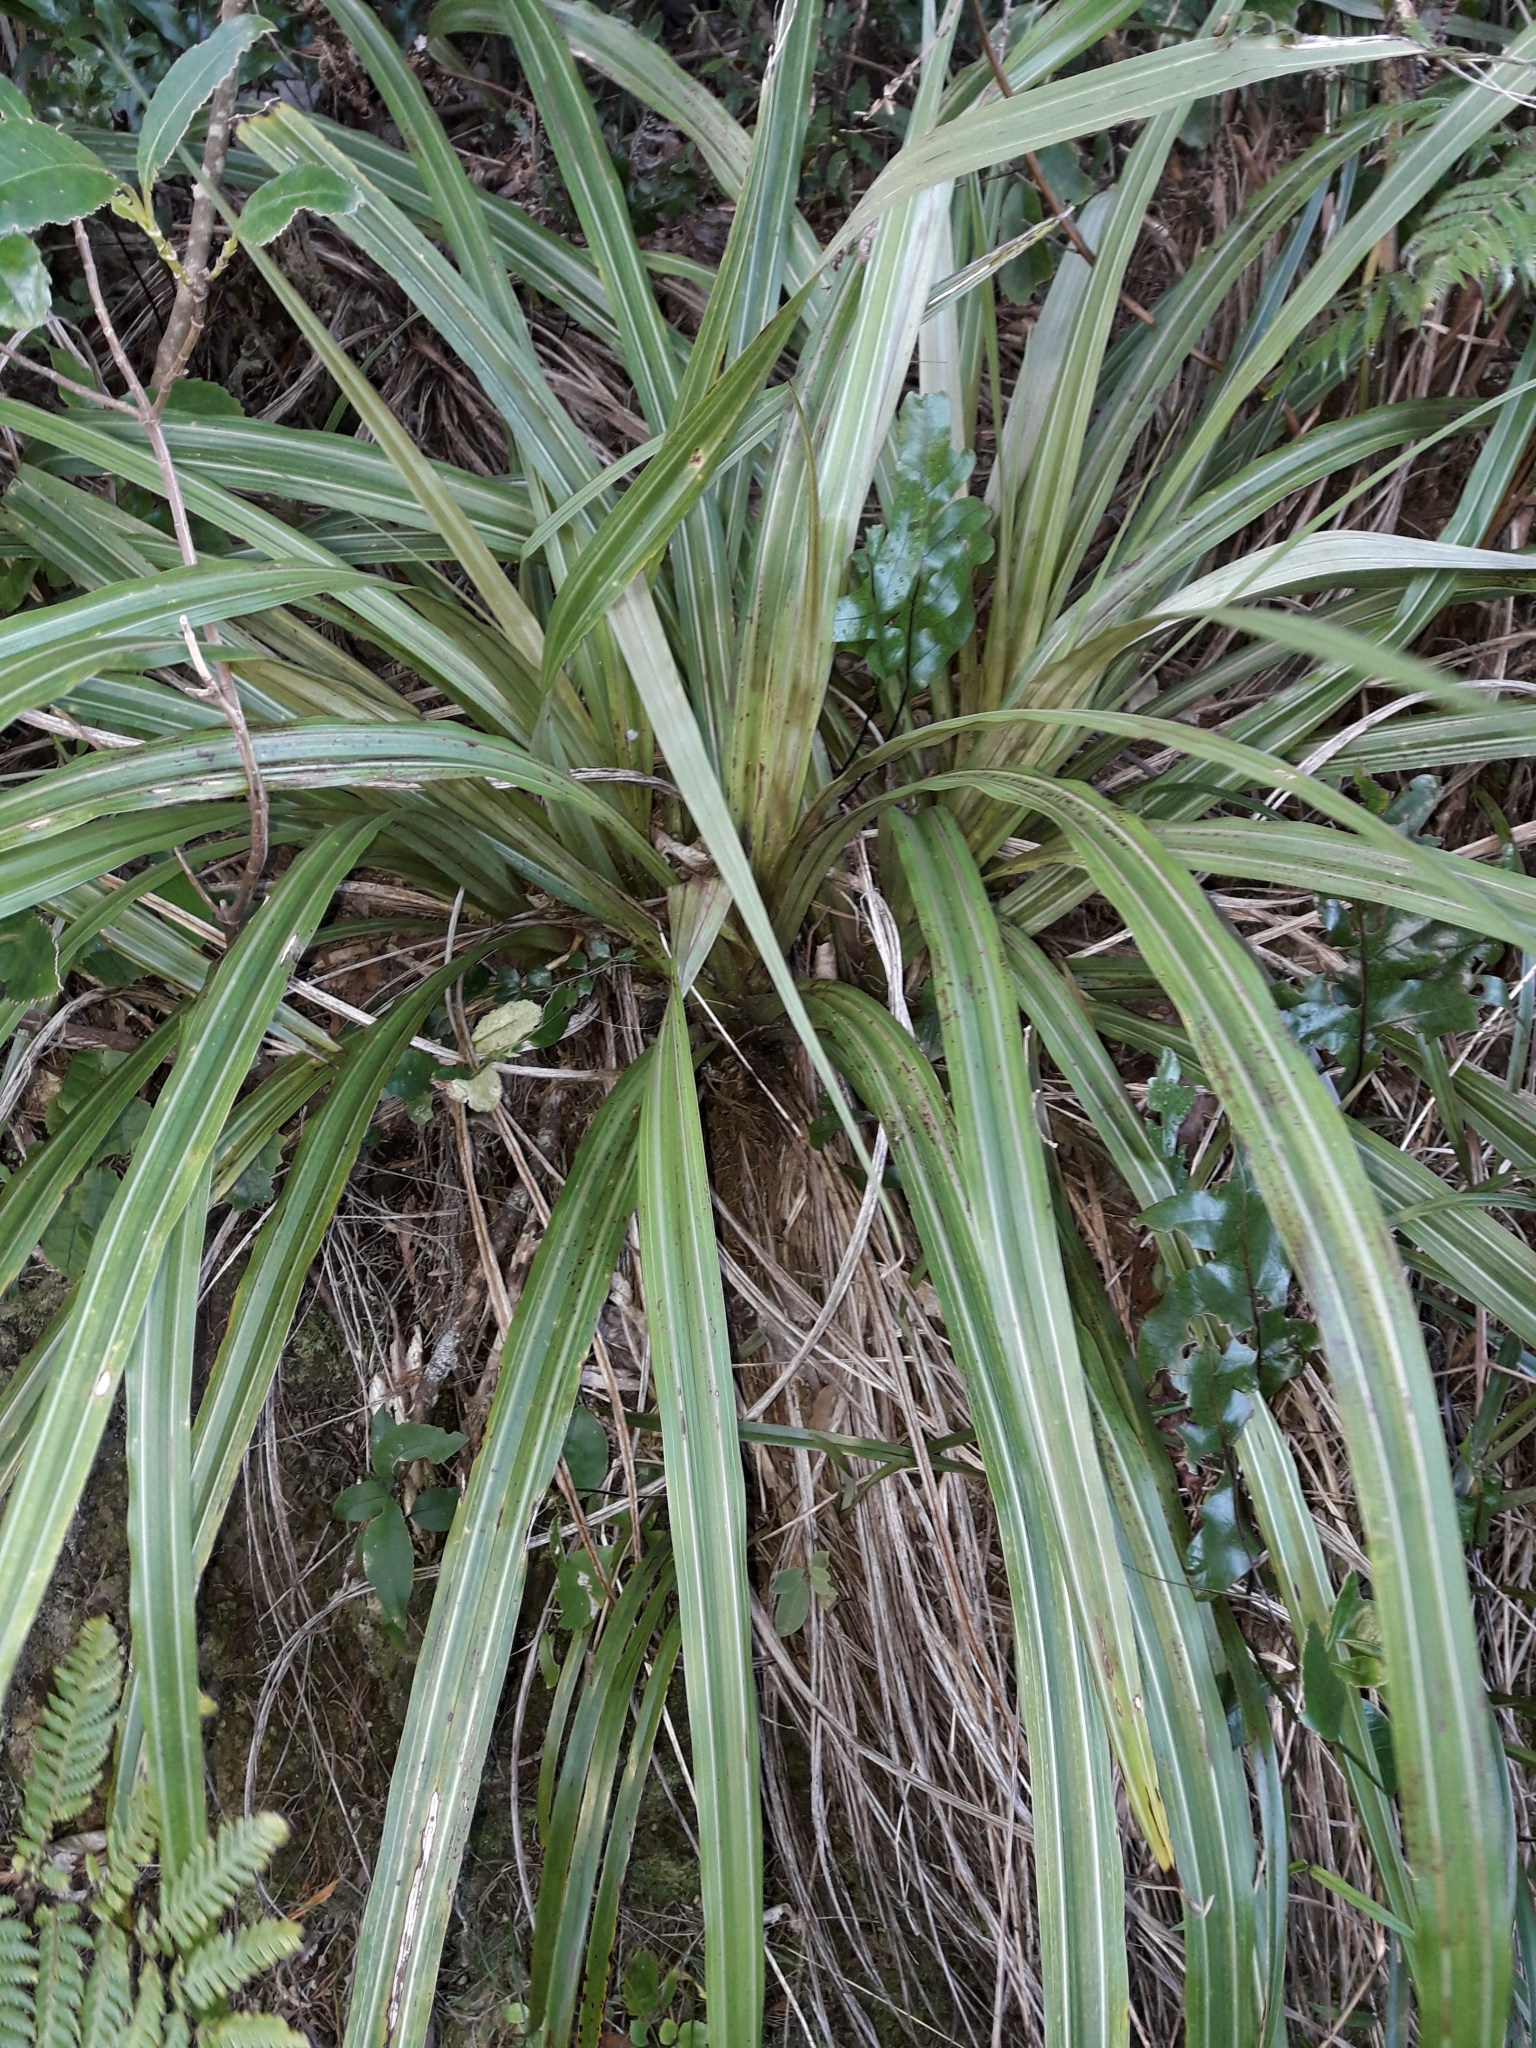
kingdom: Plantae
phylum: Tracheophyta
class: Liliopsida
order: Asparagales
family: Asteliaceae
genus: Astelia
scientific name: Astelia fragrans
